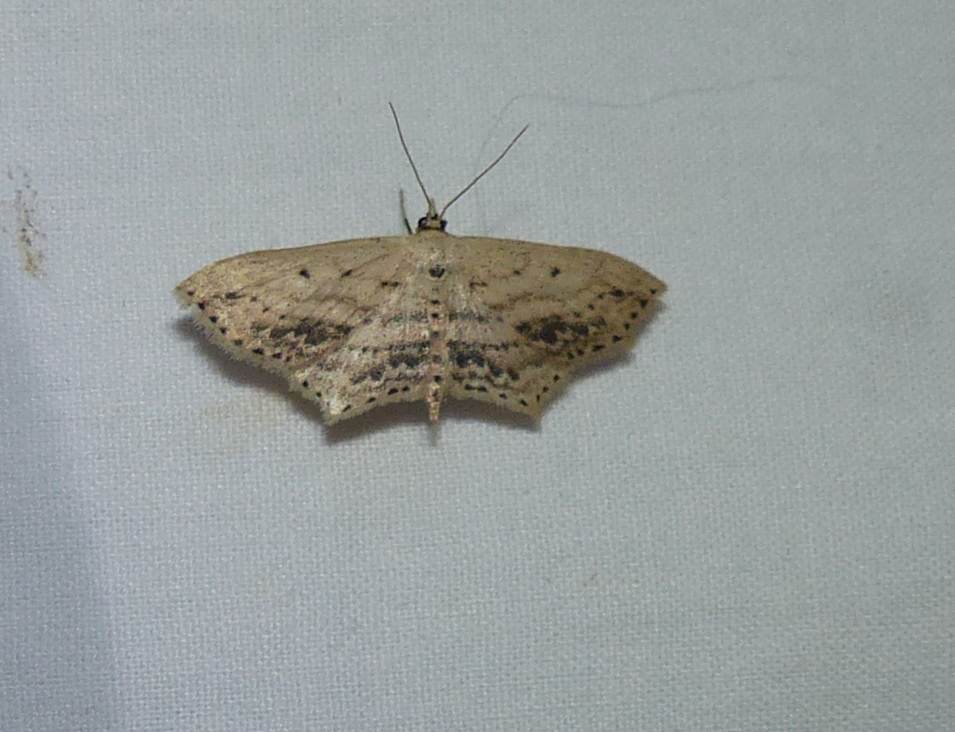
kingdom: Animalia
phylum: Arthropoda
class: Insecta
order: Lepidoptera
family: Geometridae
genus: Scopula
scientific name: Scopula cacuminaria
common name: Frosted tan wave
